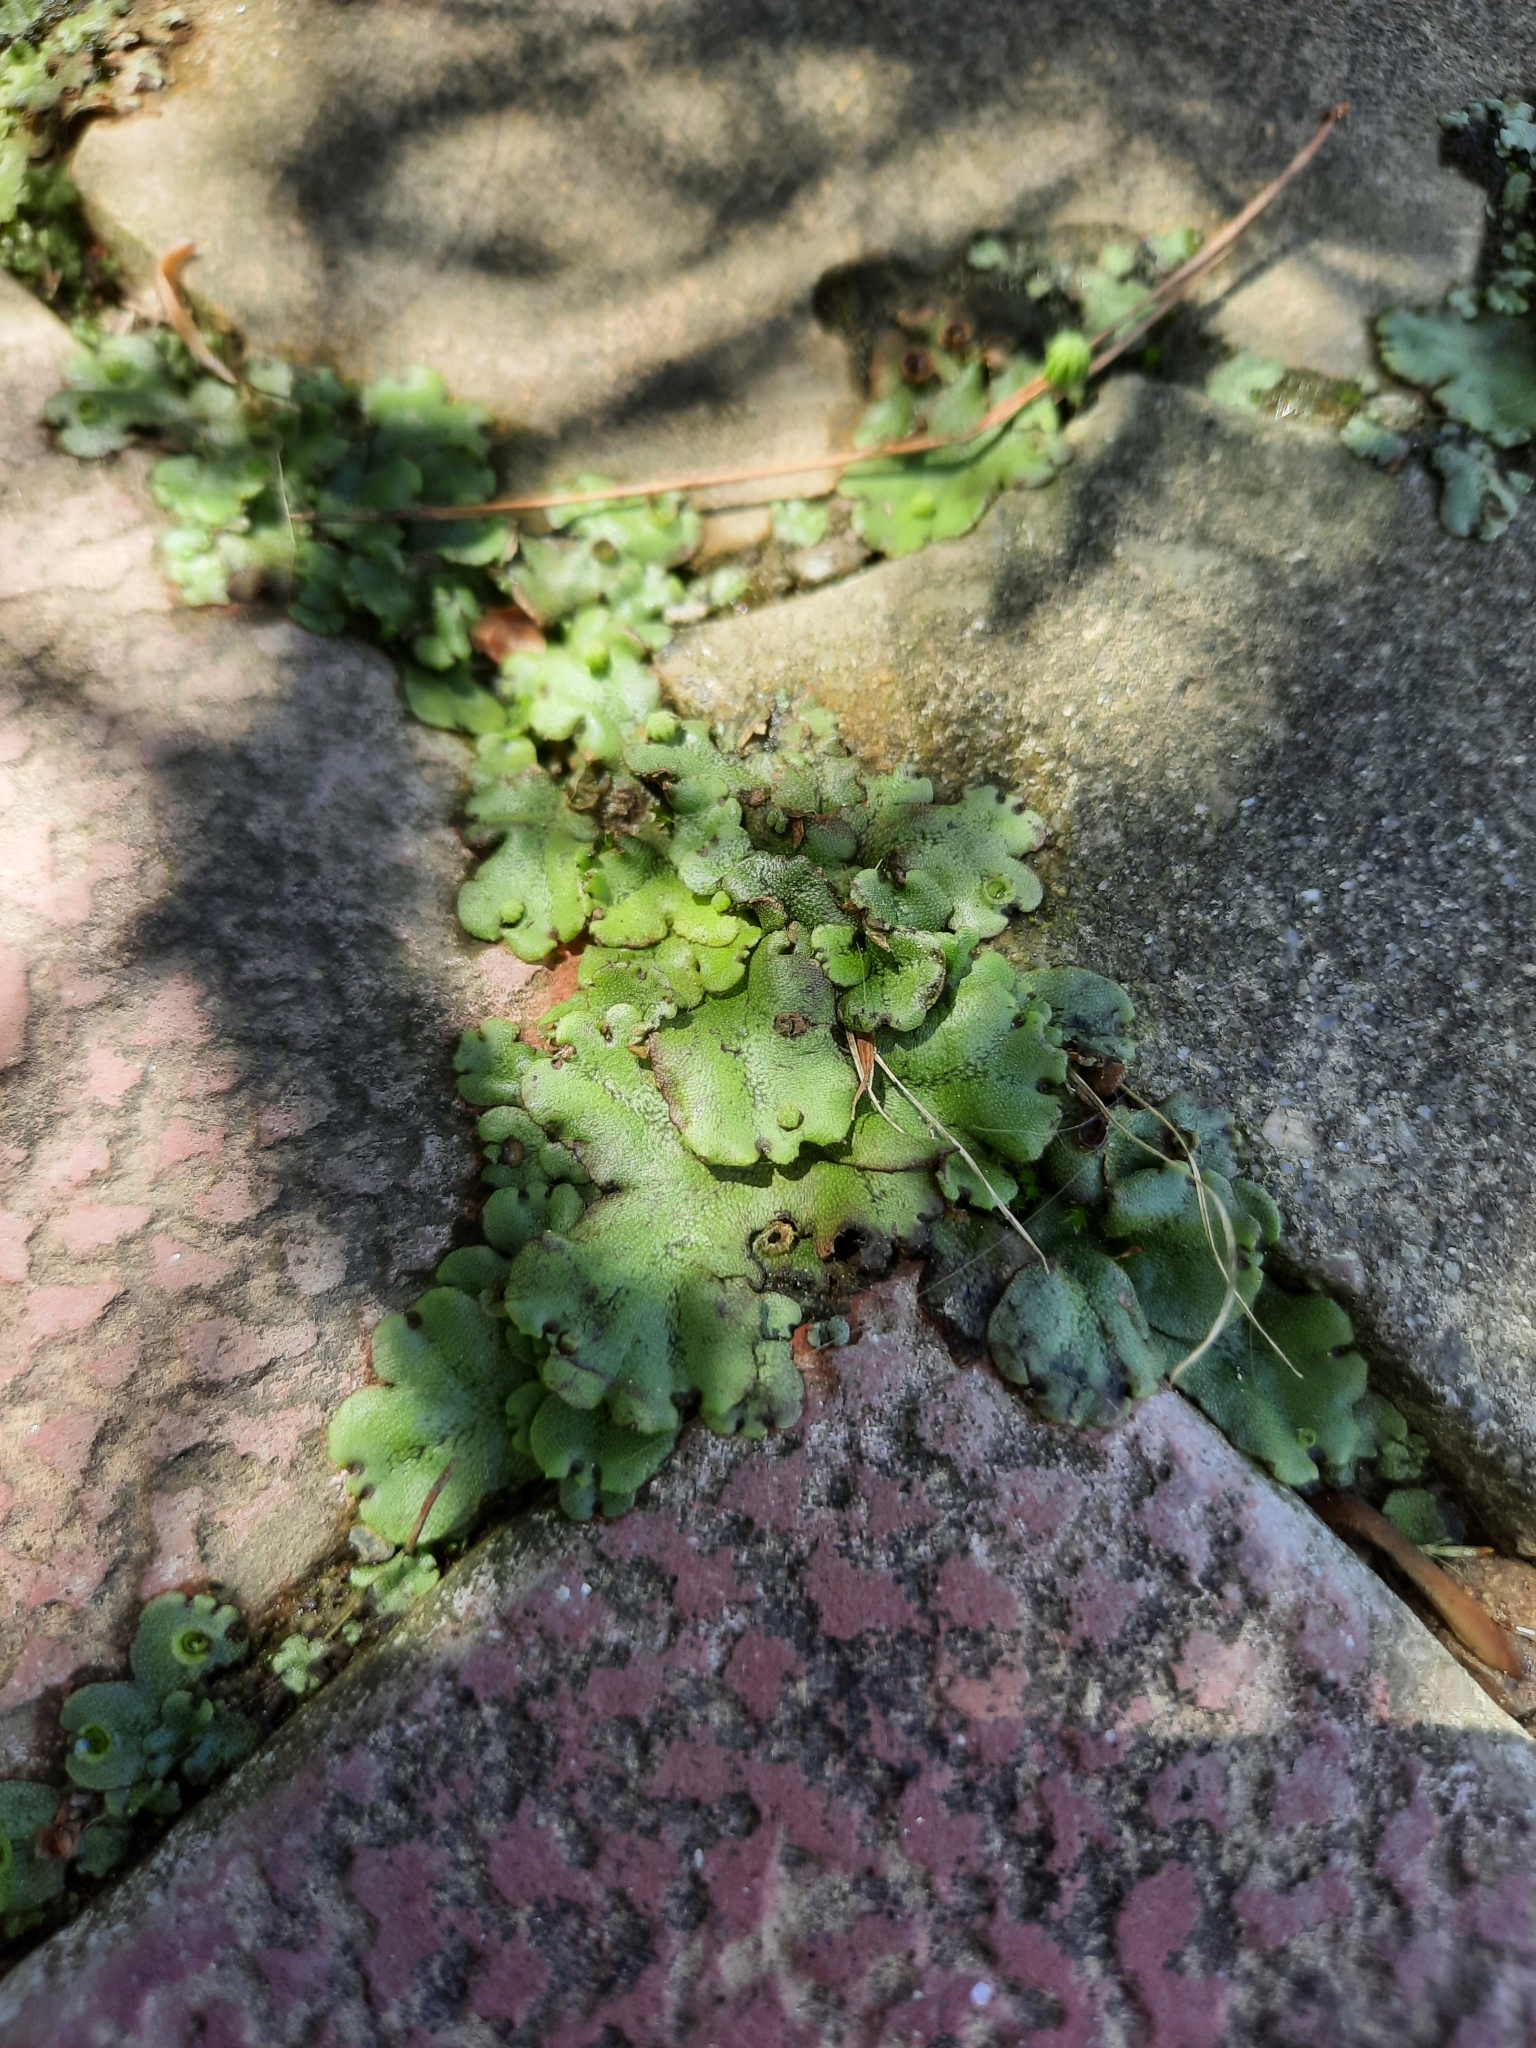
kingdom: Plantae
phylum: Marchantiophyta
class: Marchantiopsida
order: Marchantiales
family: Marchantiaceae
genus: Marchantia
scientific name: Marchantia polymorpha
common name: Common liverwort
